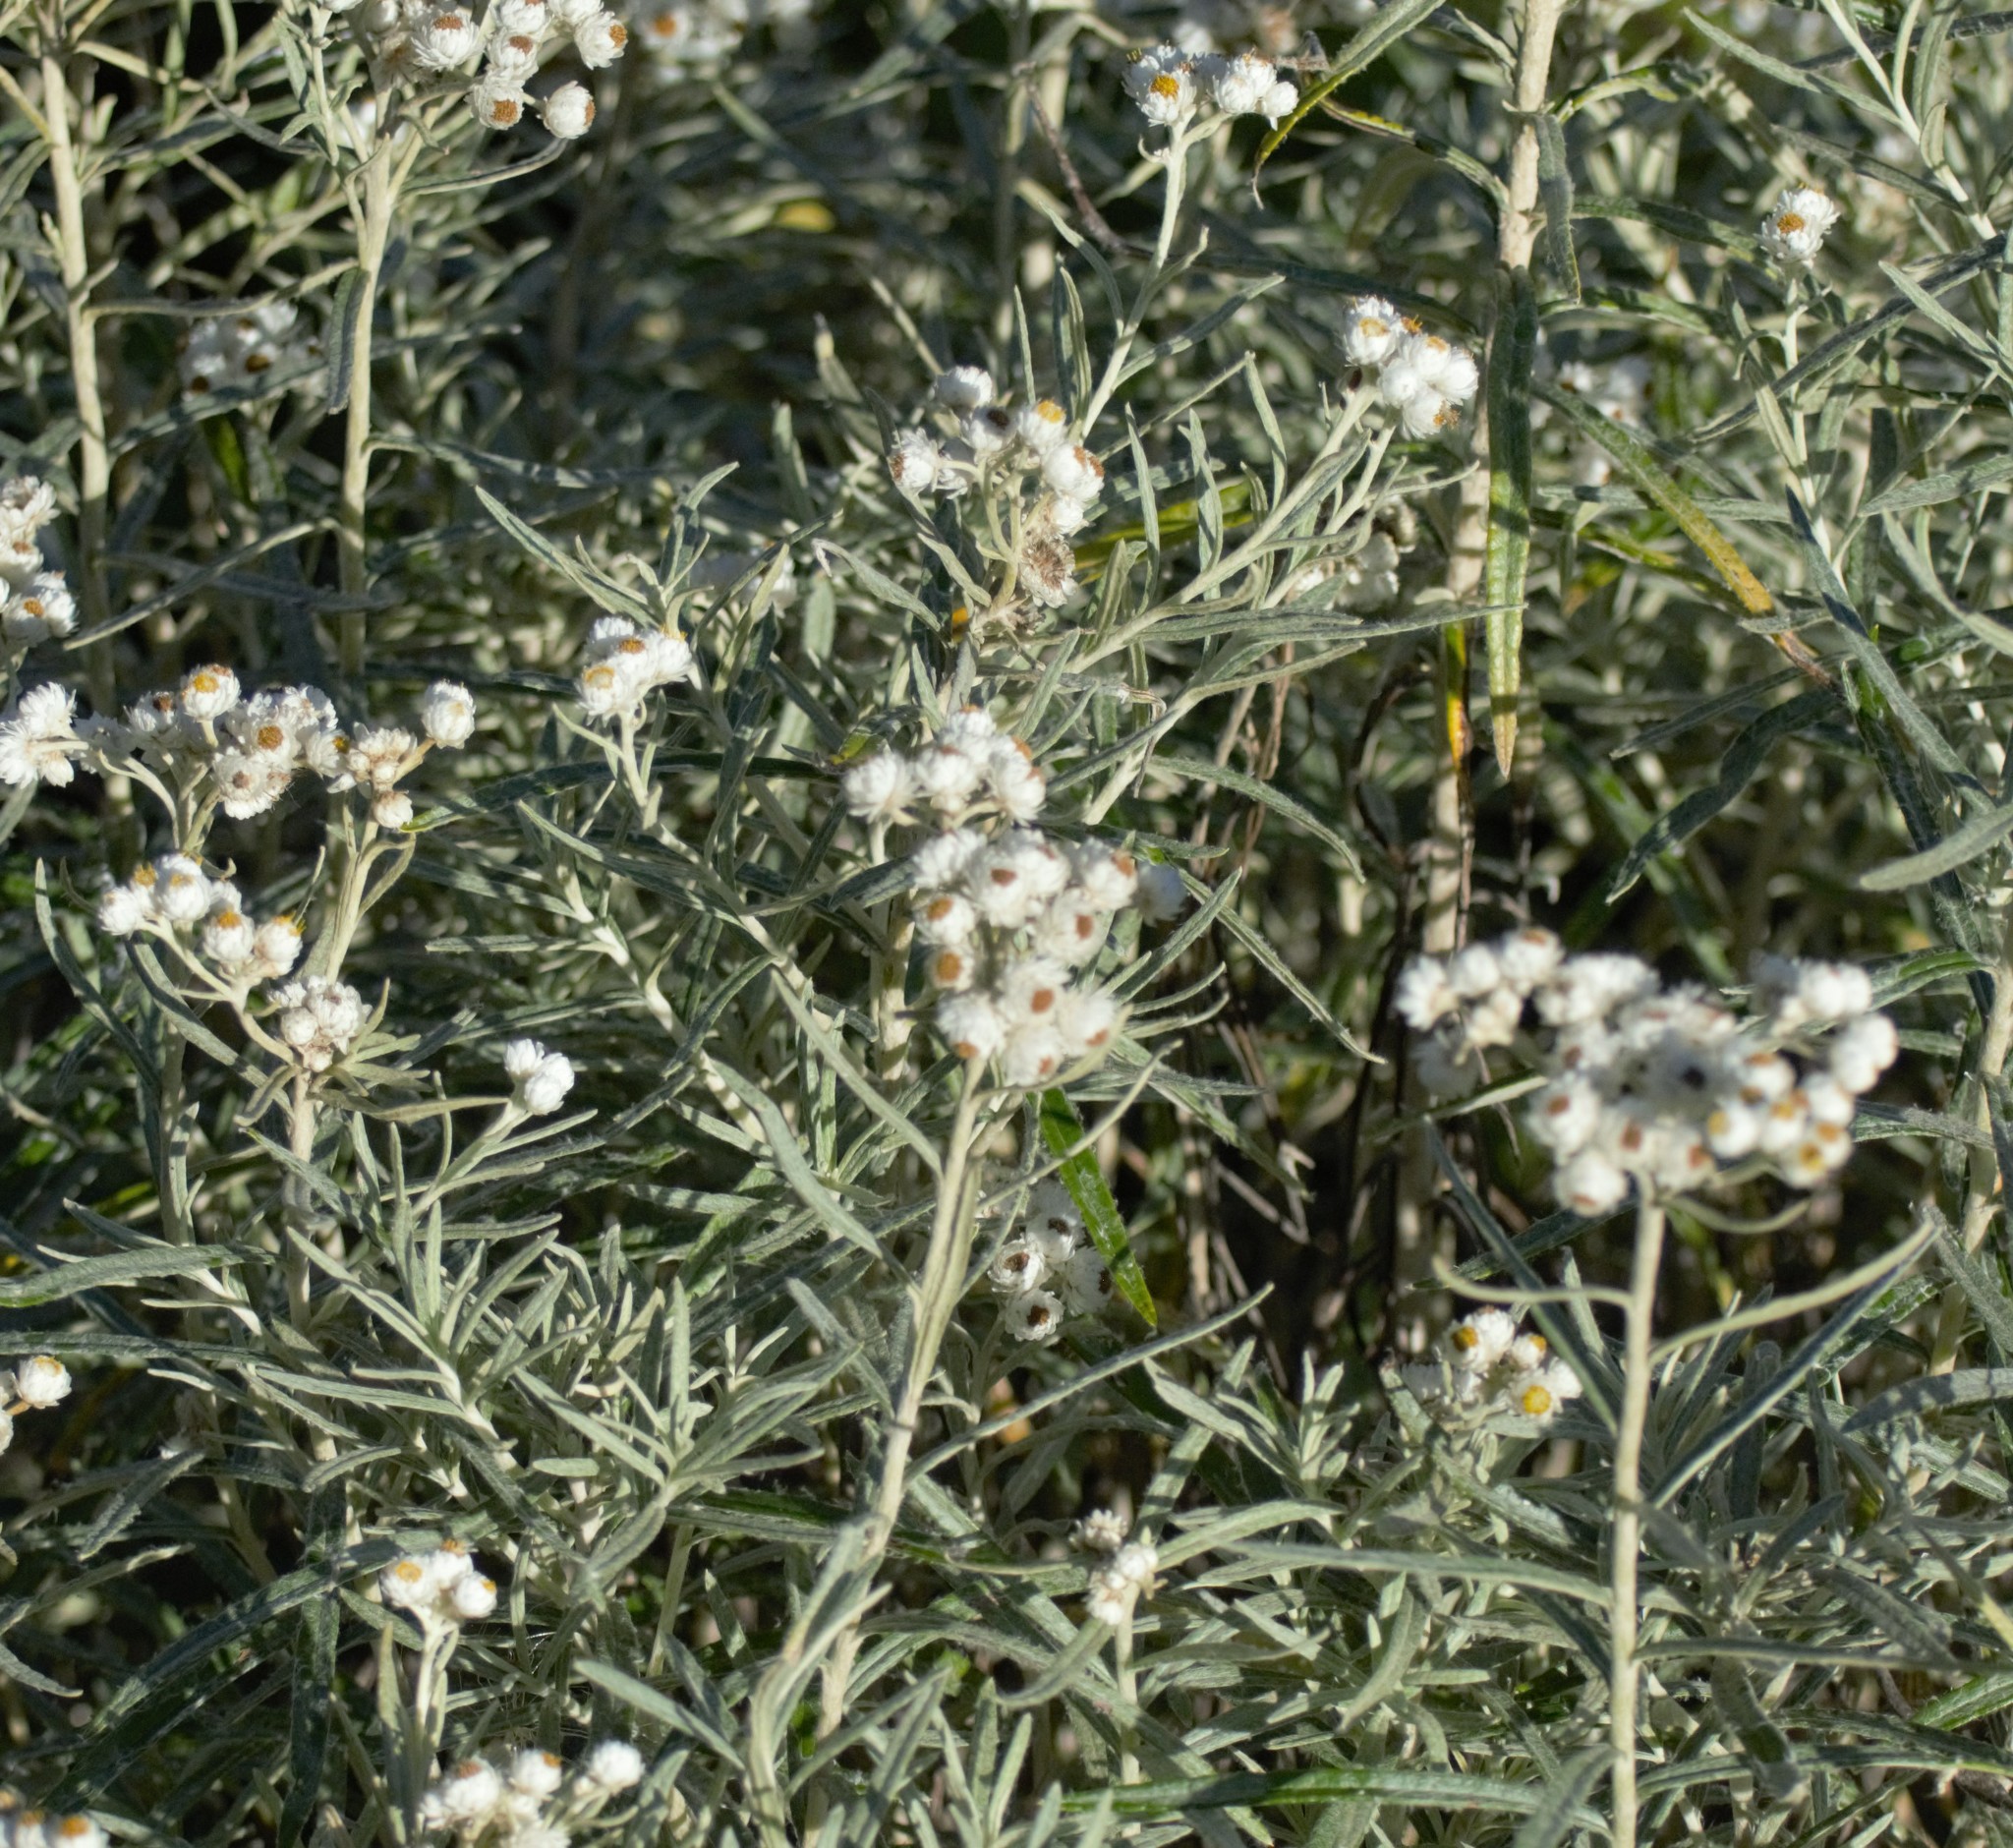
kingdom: Plantae
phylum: Tracheophyta
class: Magnoliopsida
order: Asterales
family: Asteraceae
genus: Anaphalis
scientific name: Anaphalis margaritacea
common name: Pearly everlasting
